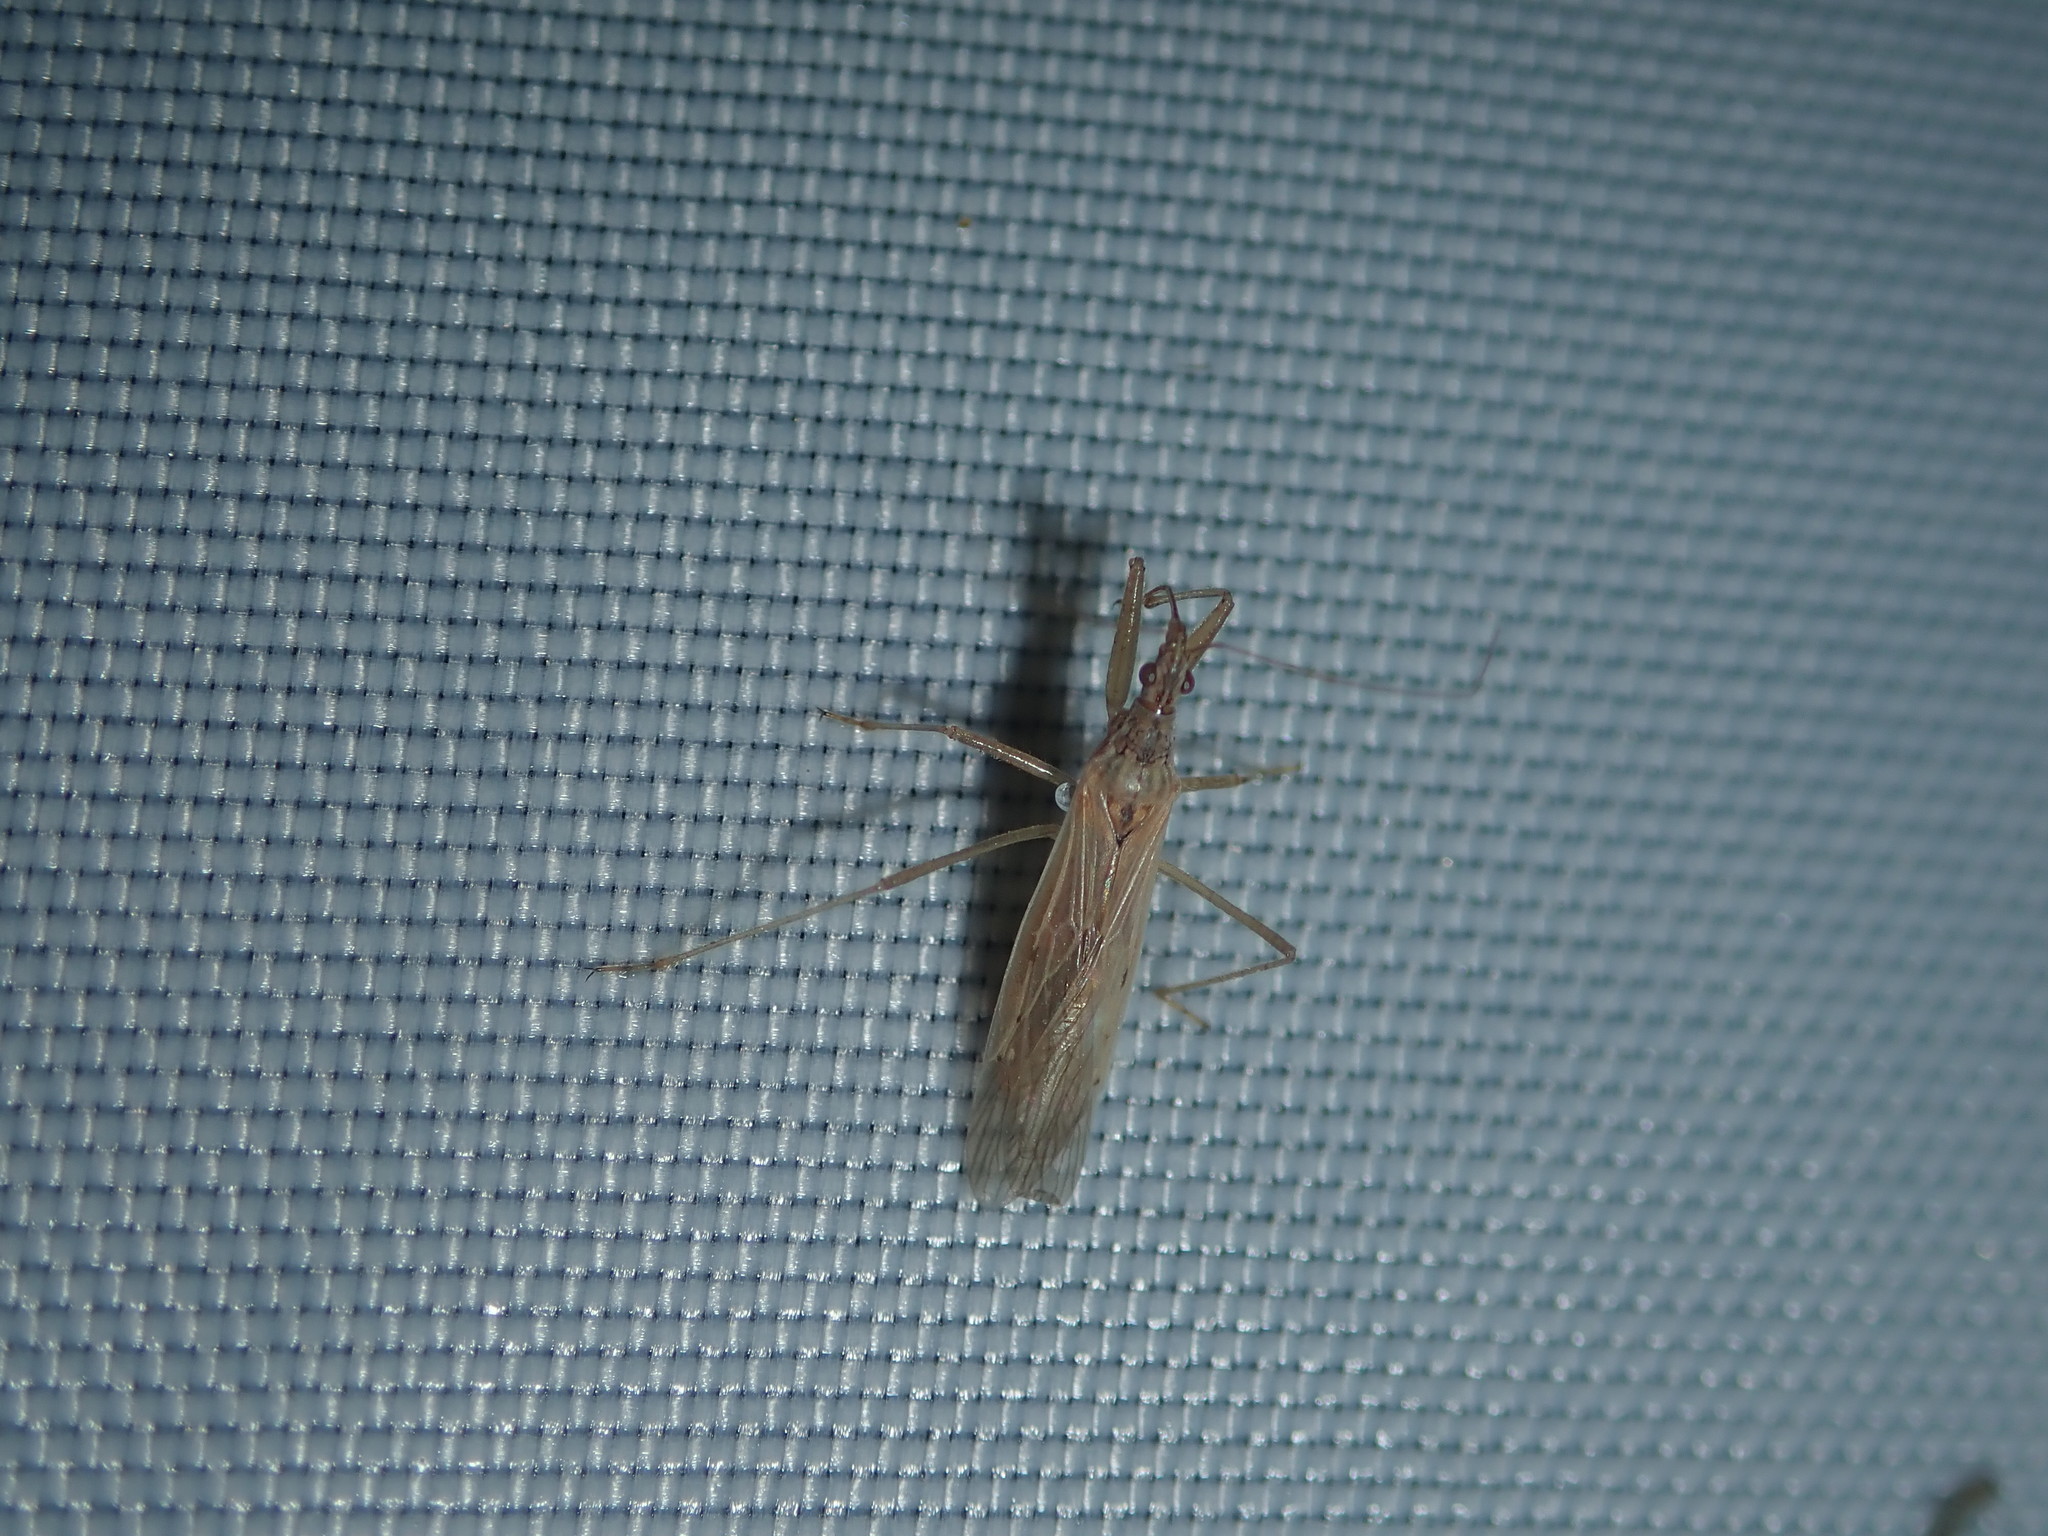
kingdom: Animalia
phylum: Arthropoda
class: Insecta
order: Hemiptera
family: Nabidae
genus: Nabis
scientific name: Nabis kinbergii
